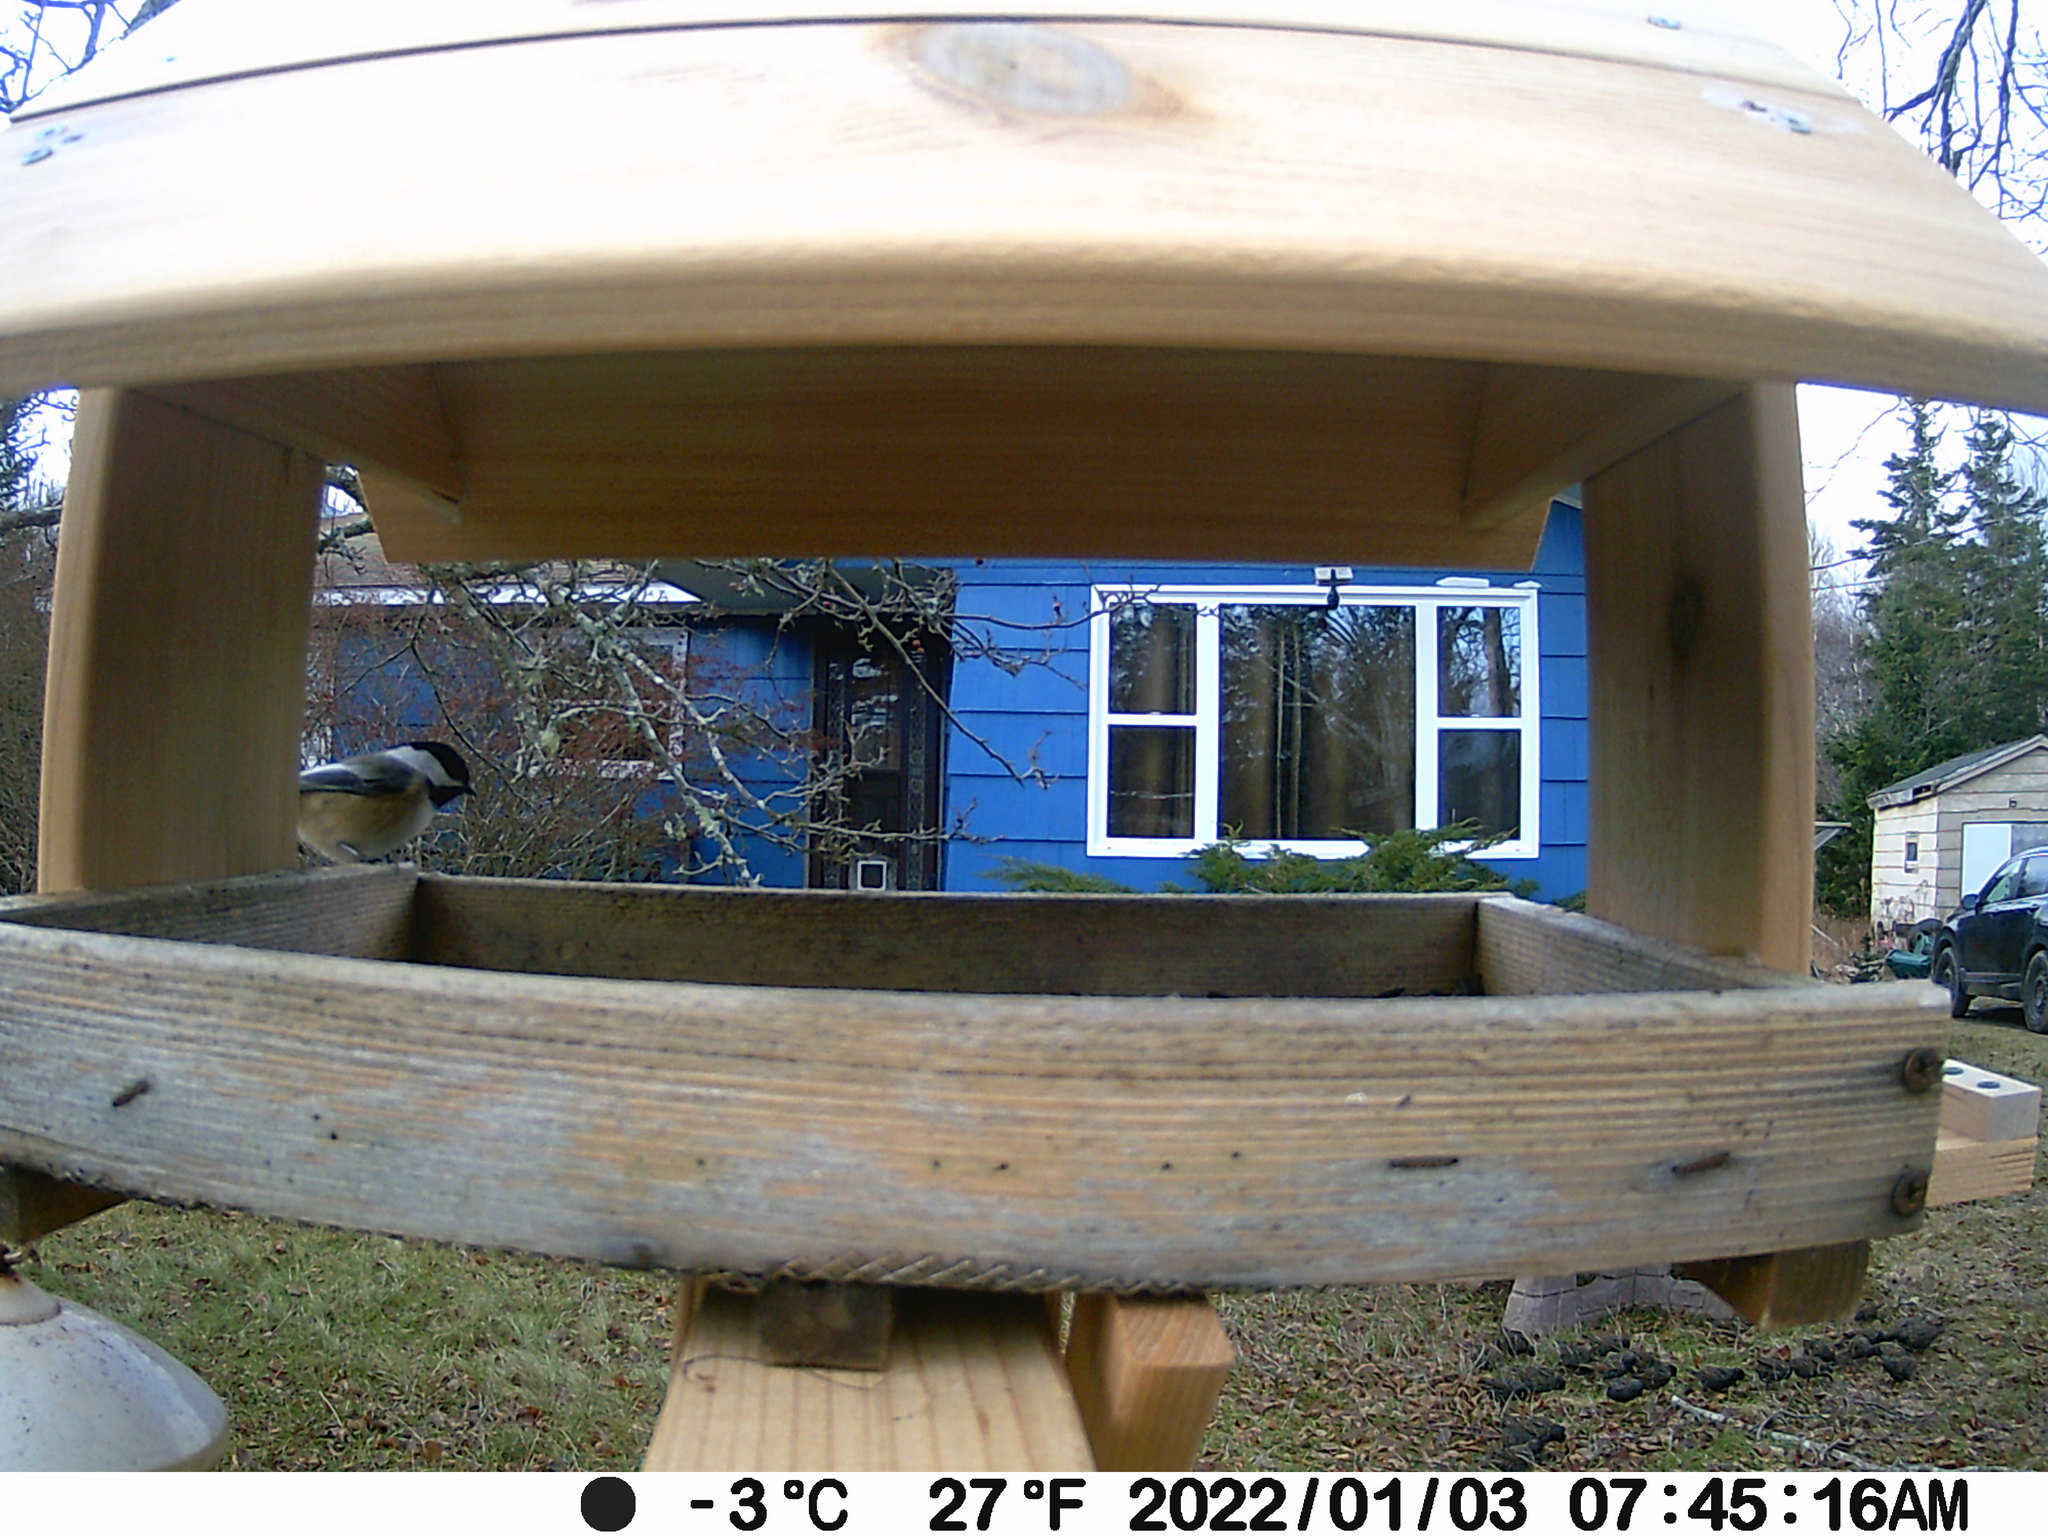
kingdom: Animalia
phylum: Chordata
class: Aves
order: Passeriformes
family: Sturnidae
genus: Sturnus
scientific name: Sturnus vulgaris
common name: Common starling
